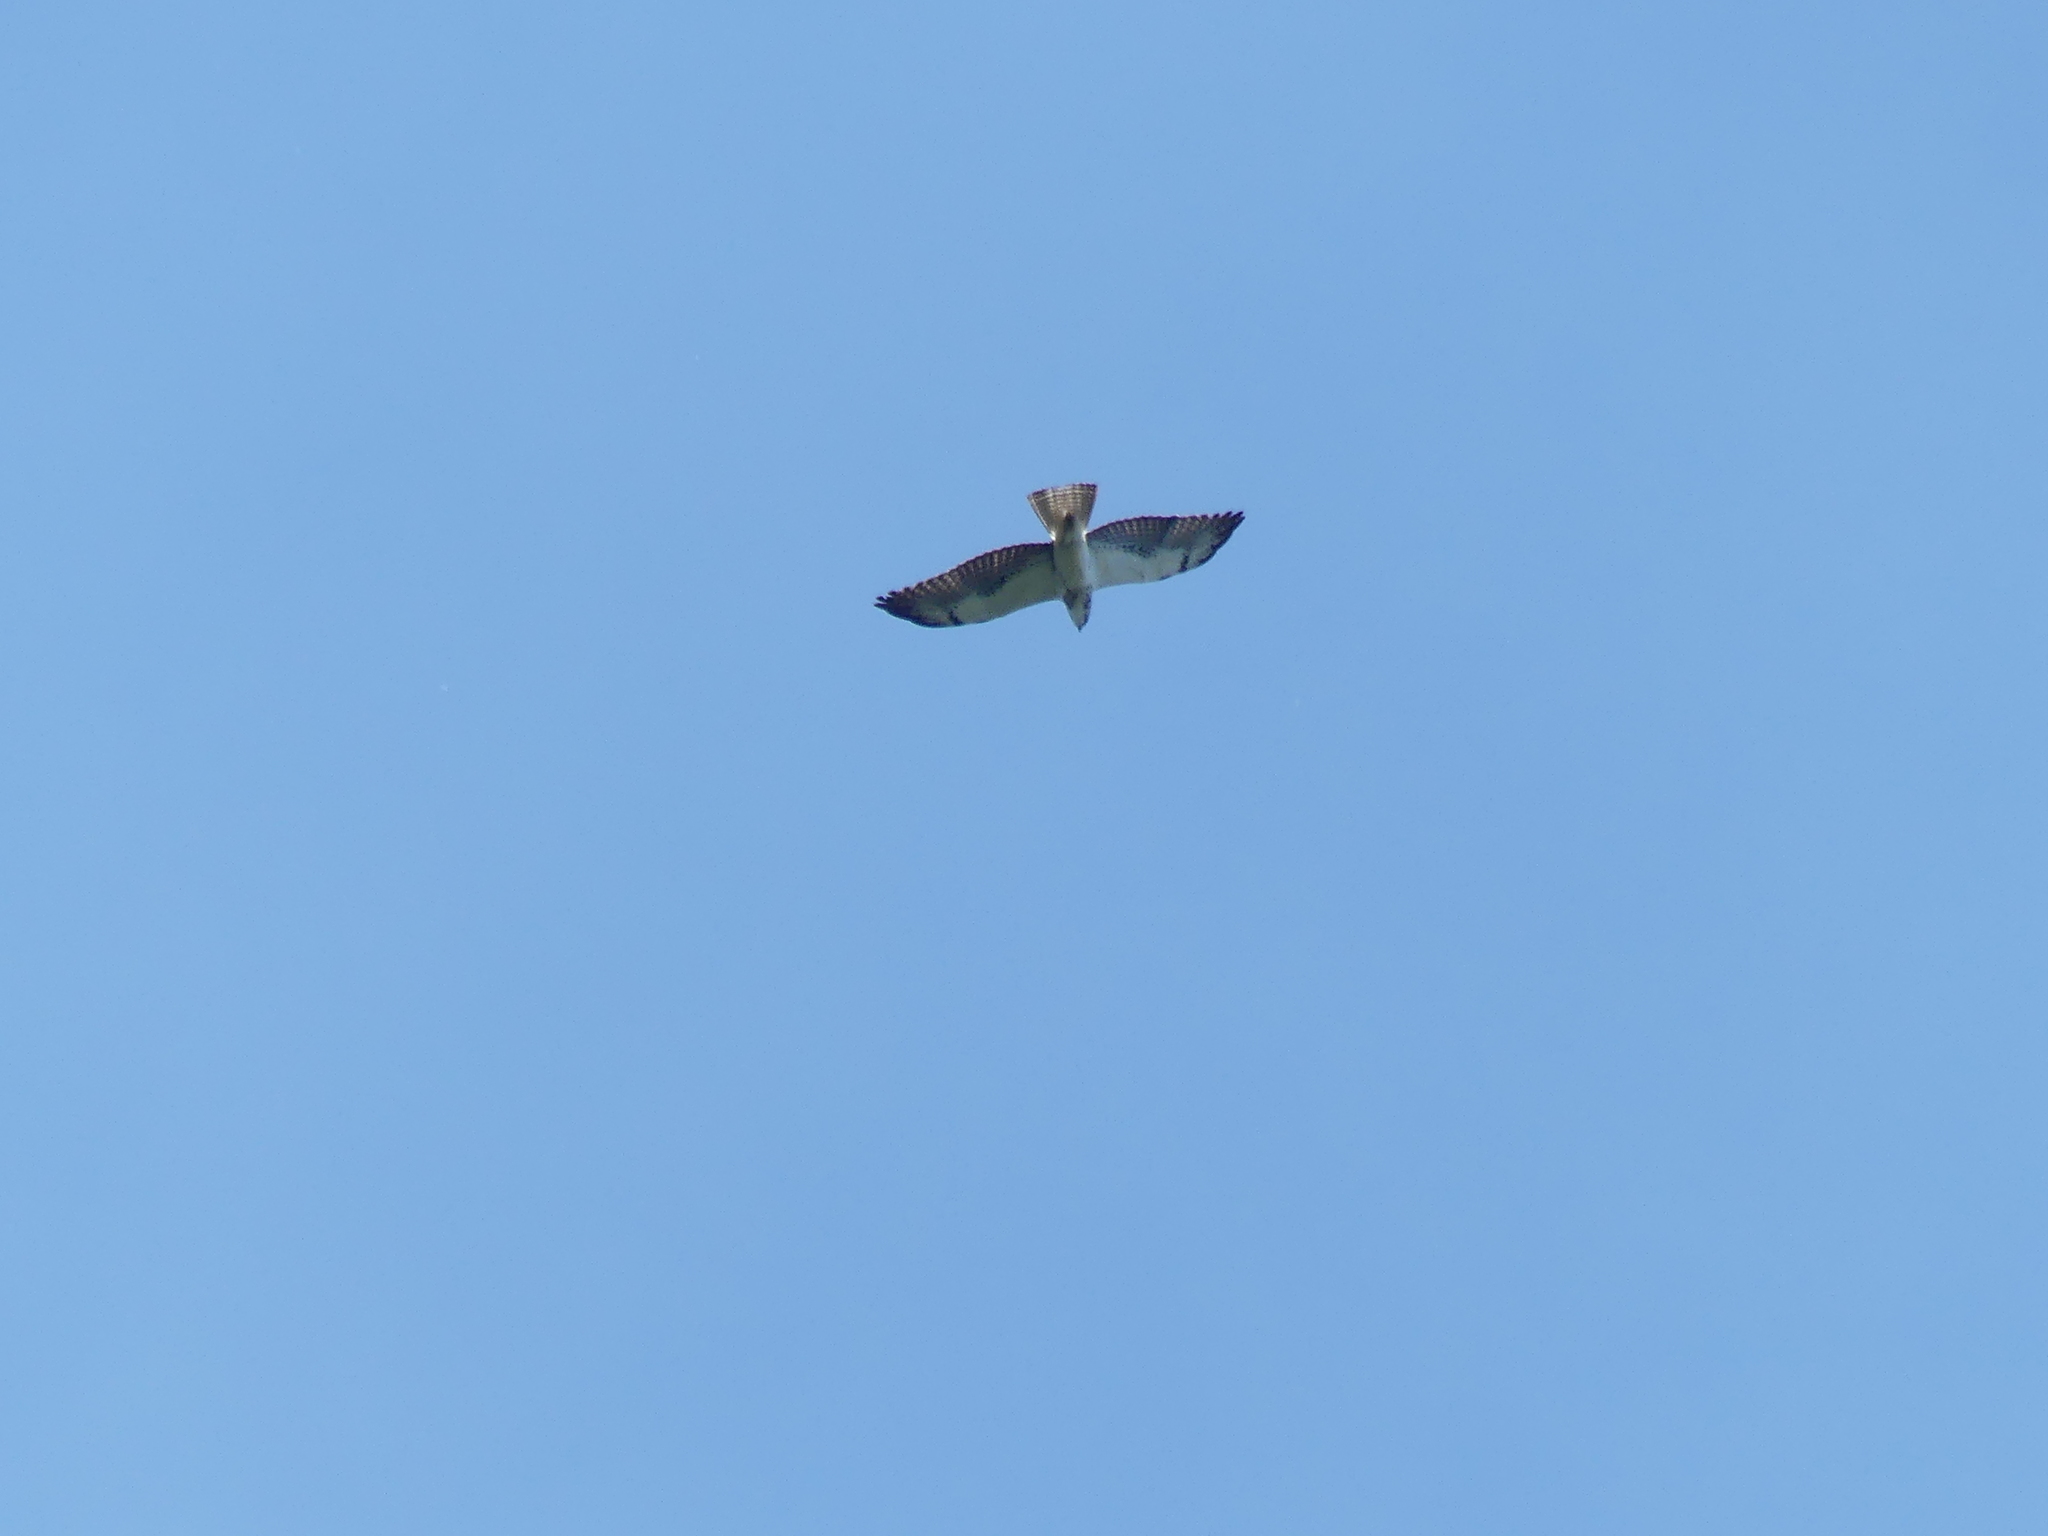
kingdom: Animalia
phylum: Chordata
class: Aves
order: Accipitriformes
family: Accipitridae
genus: Buteo
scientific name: Buteo swainsoni
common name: Swainson's hawk
